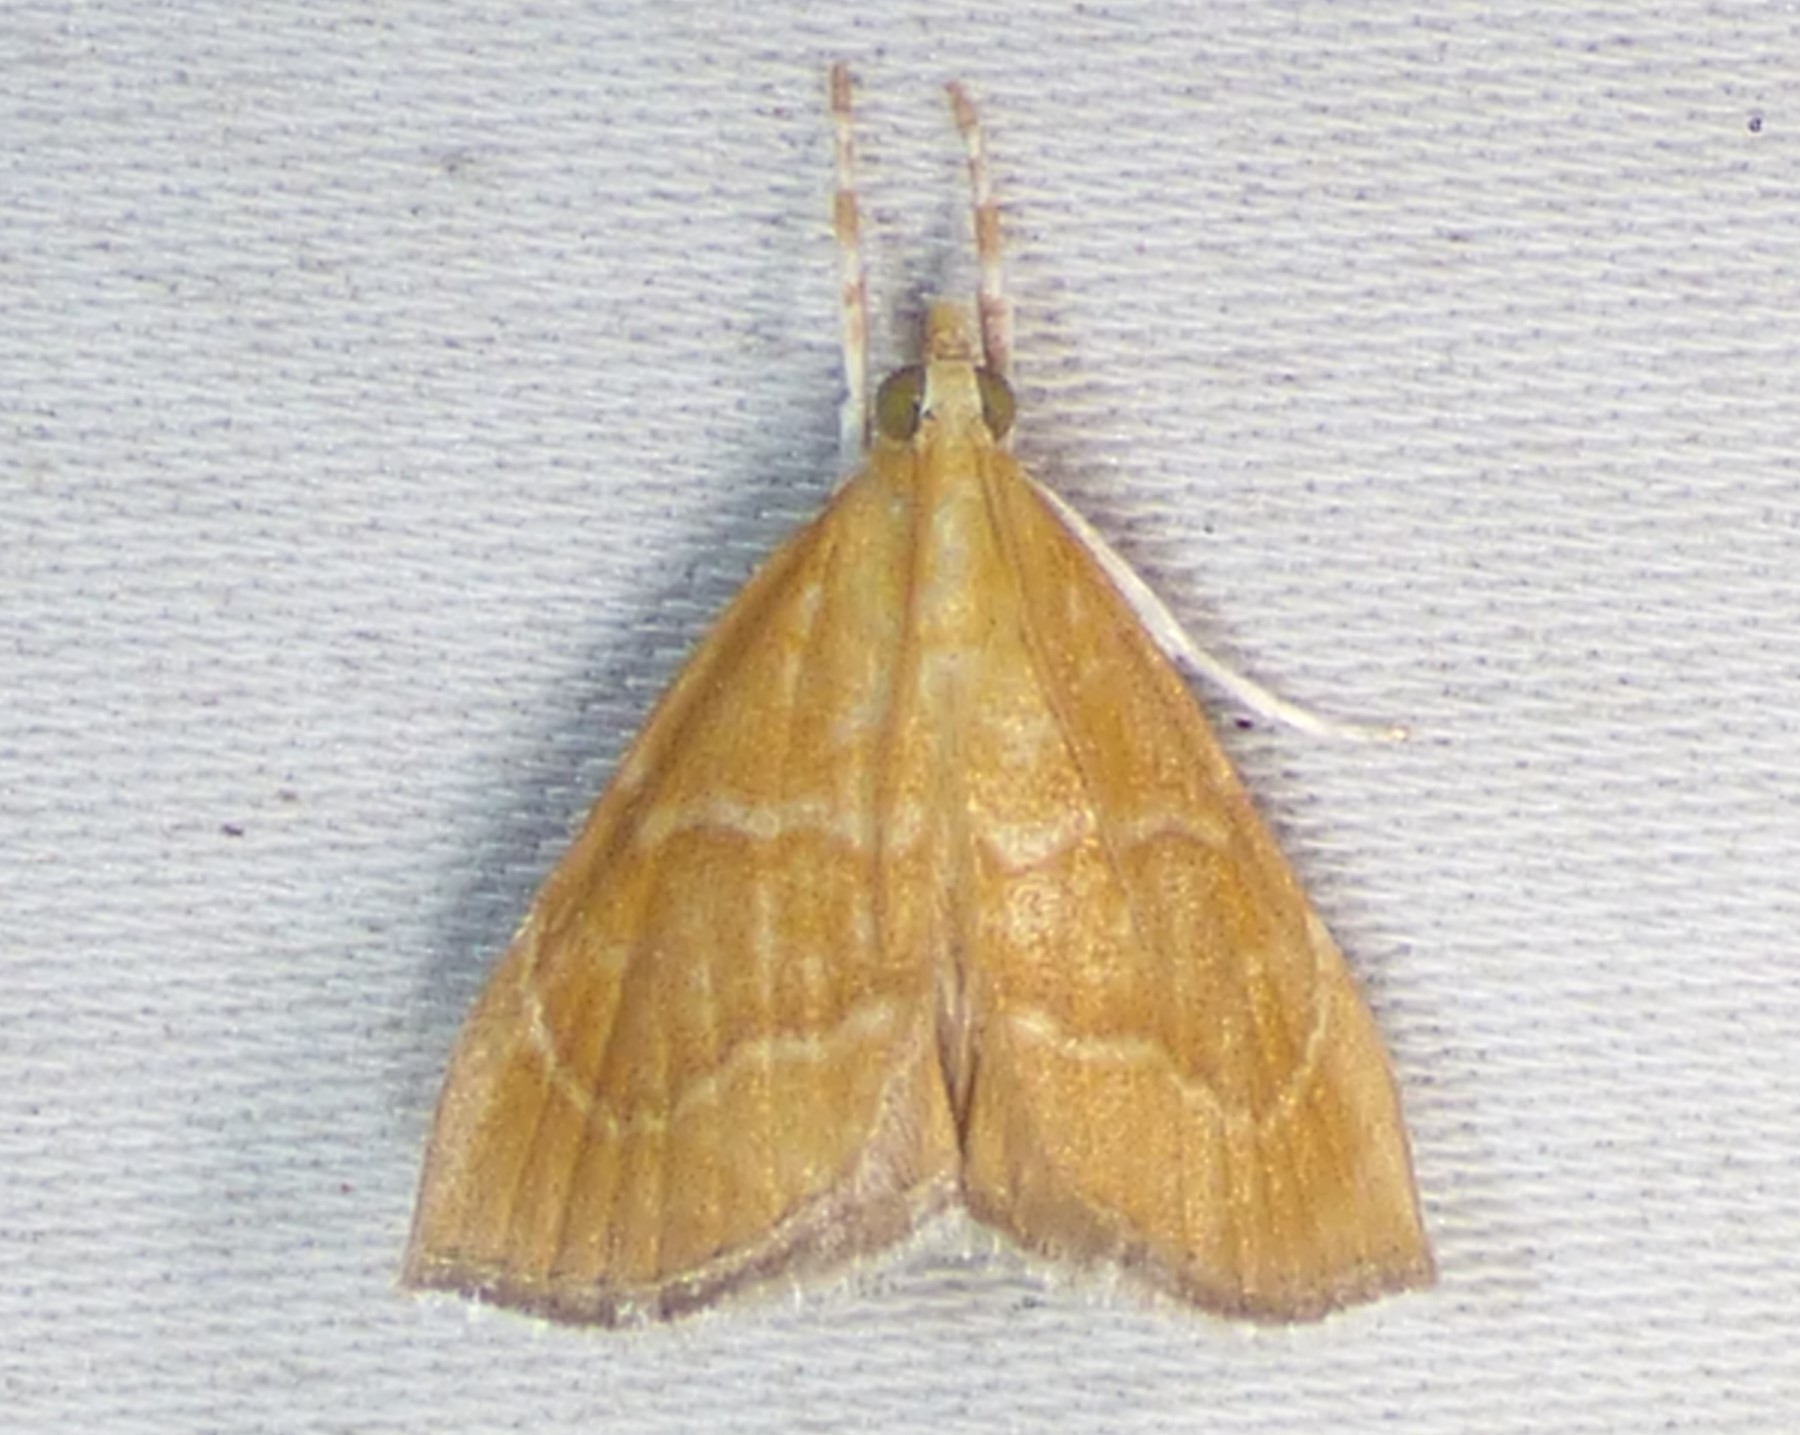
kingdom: Animalia
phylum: Arthropoda
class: Insecta
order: Lepidoptera
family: Crambidae
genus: Aethiophysa
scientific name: Aethiophysa
